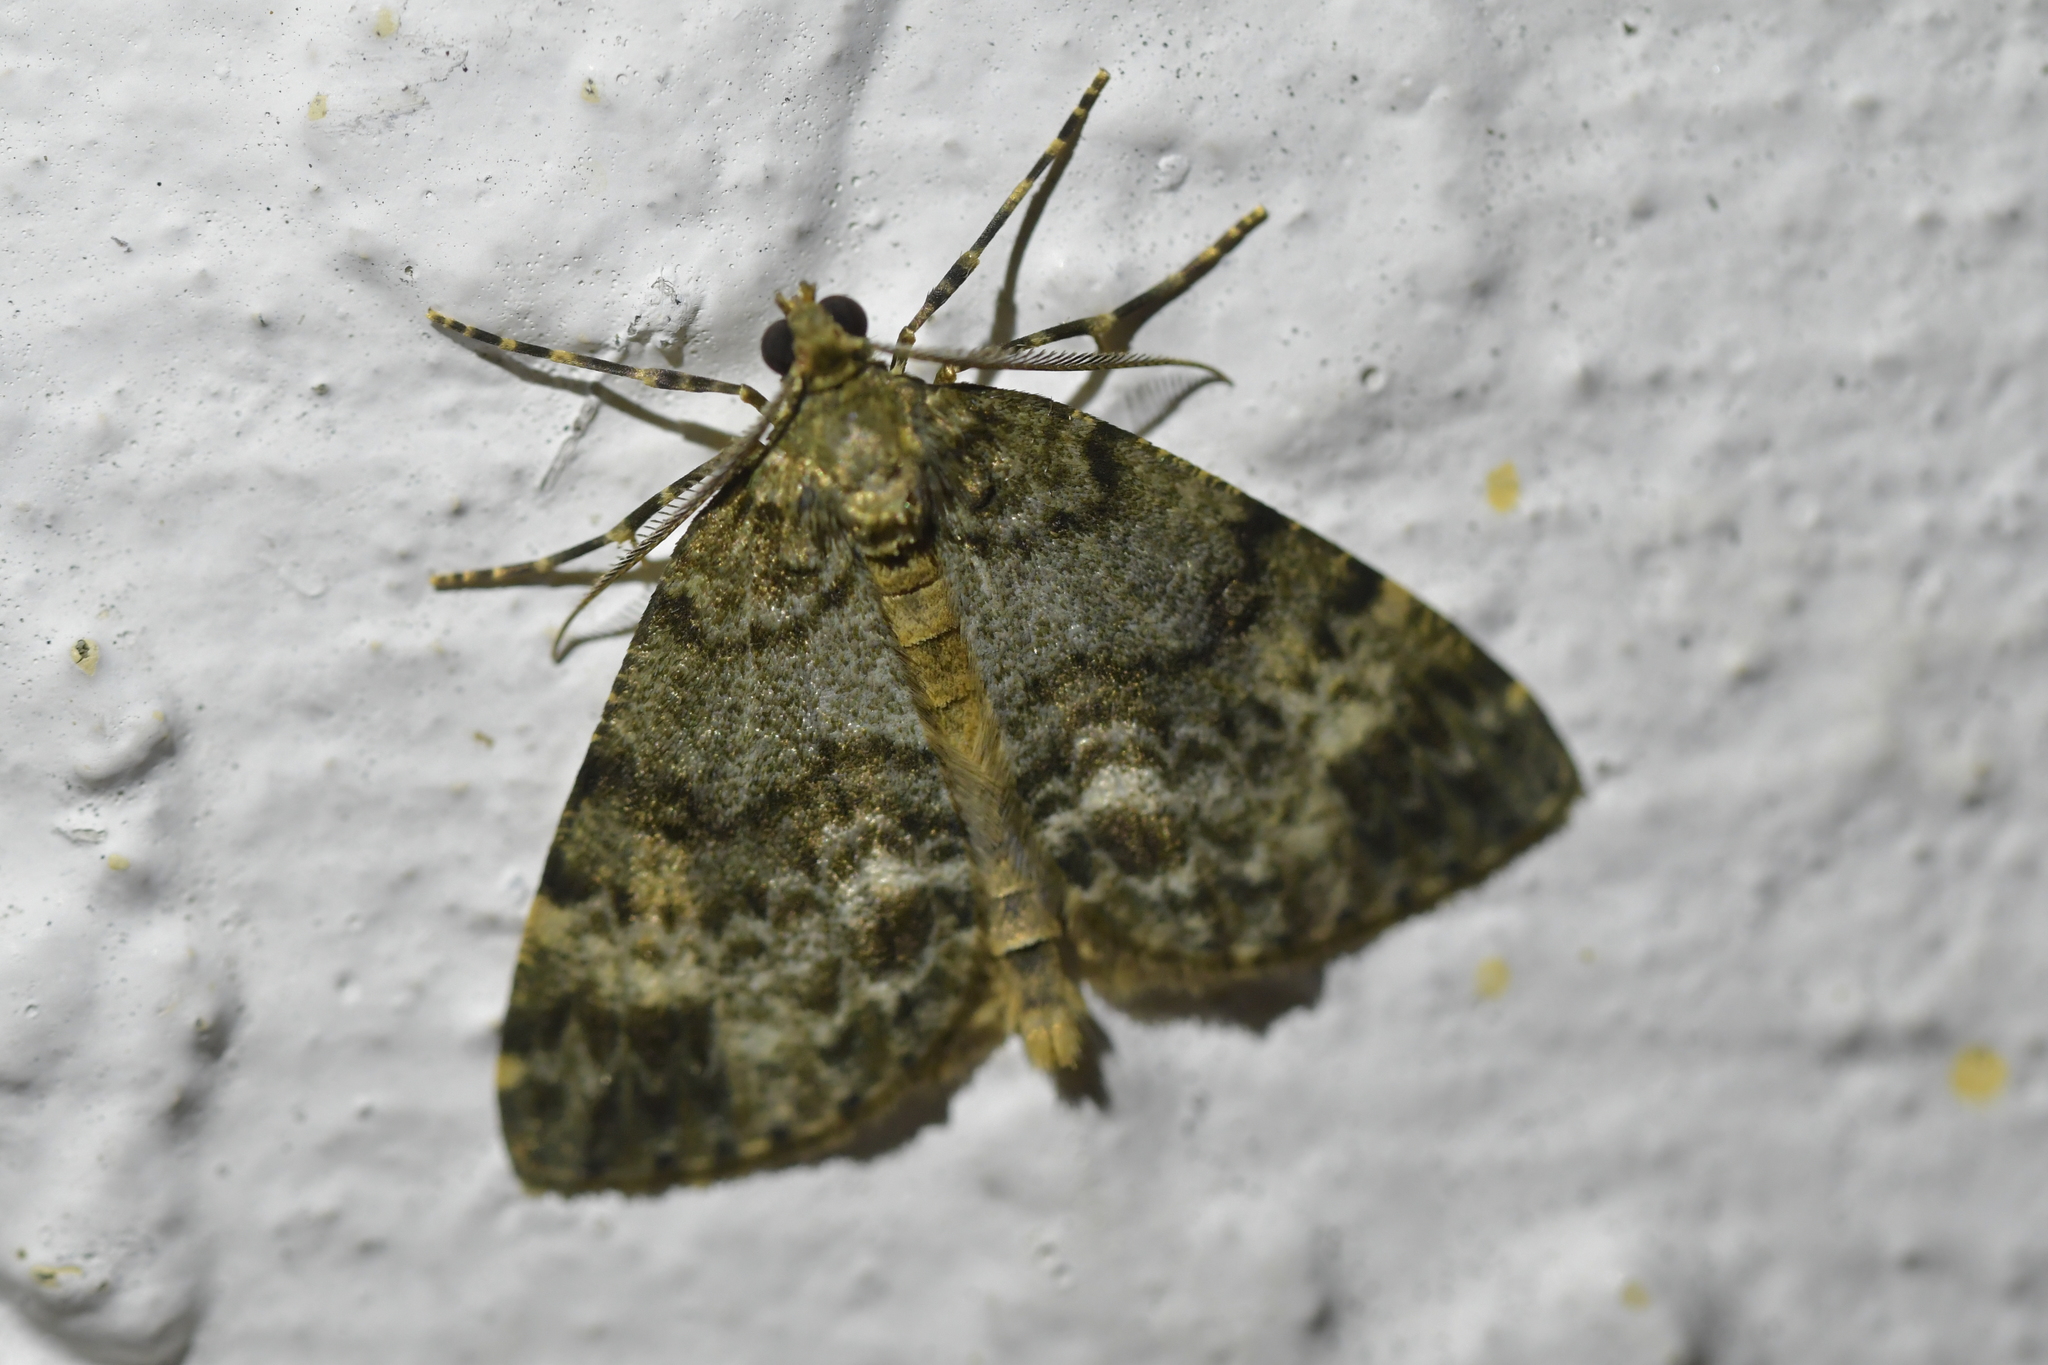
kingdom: Animalia
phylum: Arthropoda
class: Insecta
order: Lepidoptera
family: Geometridae
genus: Pseudocoremia
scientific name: Pseudocoremia indistincta
